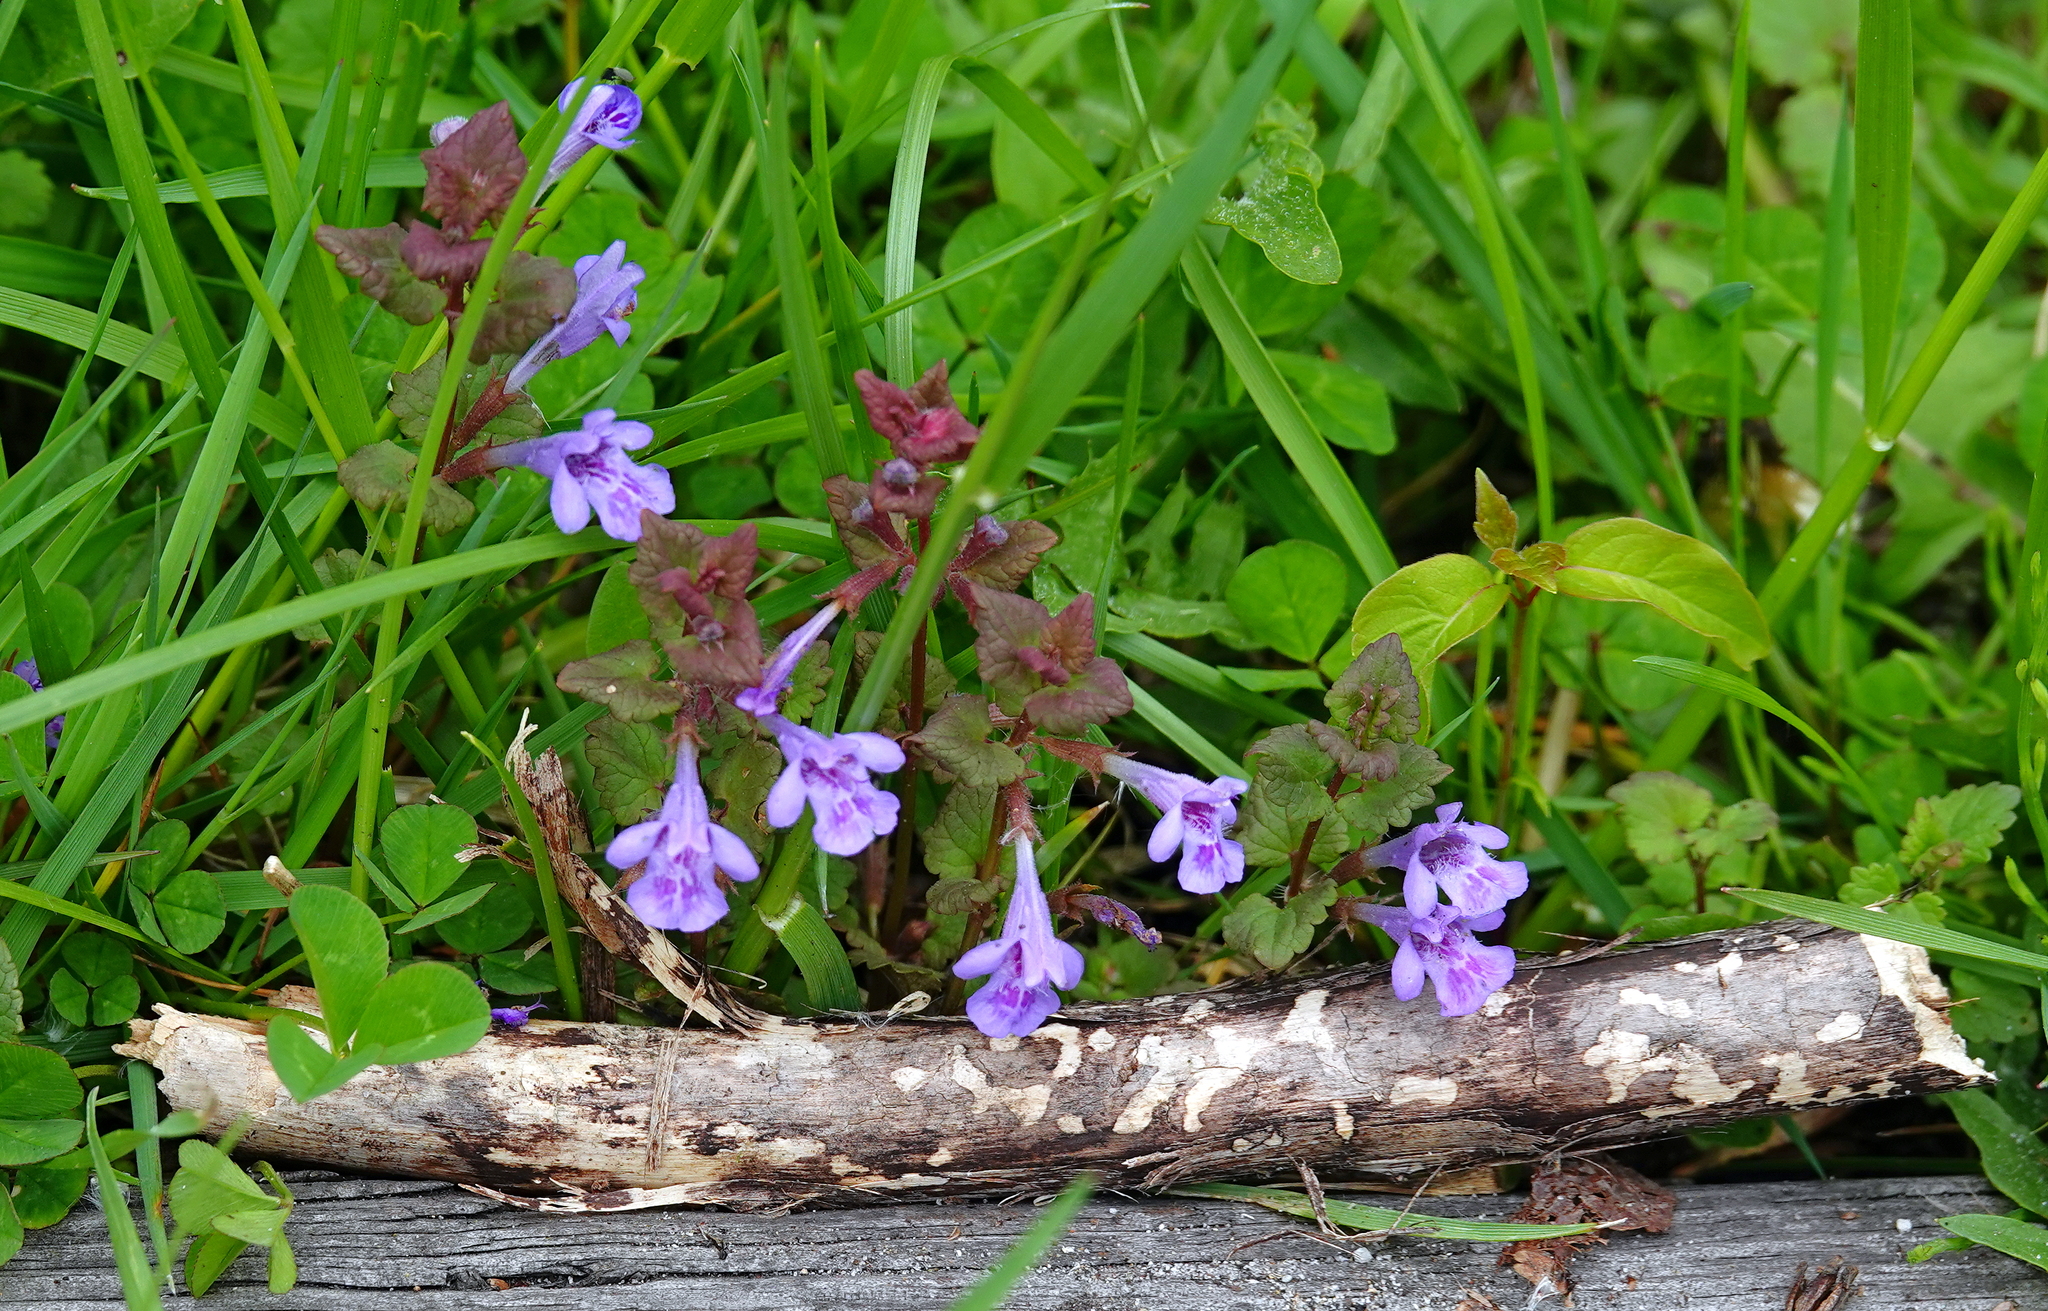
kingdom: Plantae
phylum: Tracheophyta
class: Magnoliopsida
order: Lamiales
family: Lamiaceae
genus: Glechoma
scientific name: Glechoma hederacea
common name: Ground ivy
